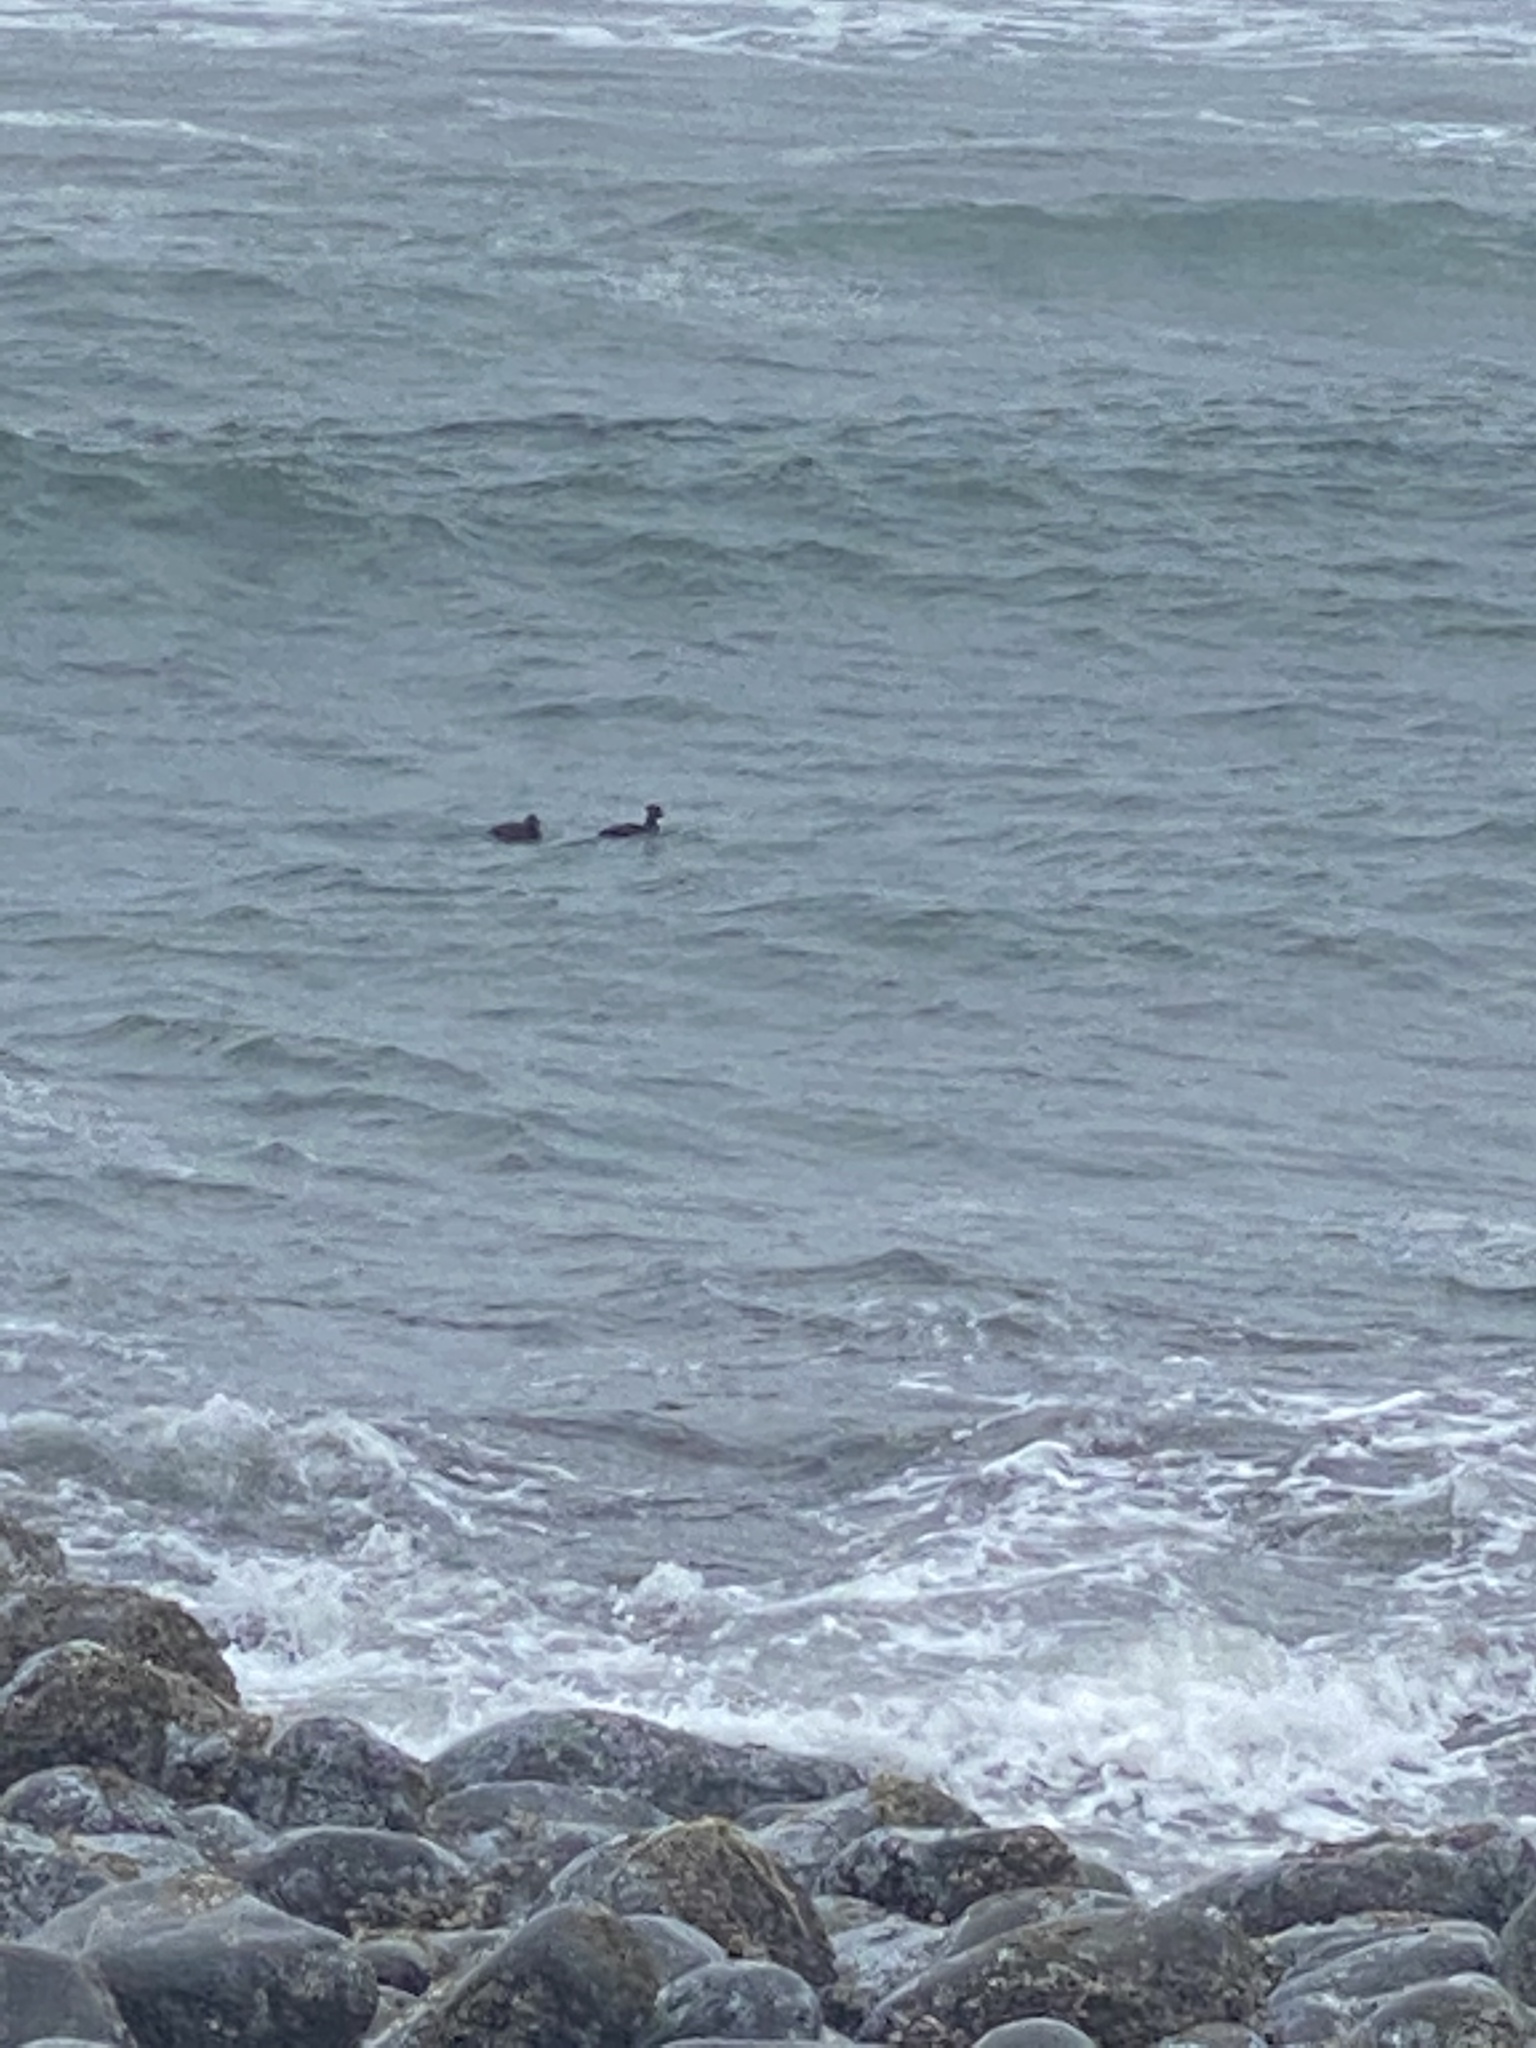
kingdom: Animalia
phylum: Chordata
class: Aves
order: Anseriformes
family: Anatidae
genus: Melanitta
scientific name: Melanitta perspicillata
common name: Surf scoter
